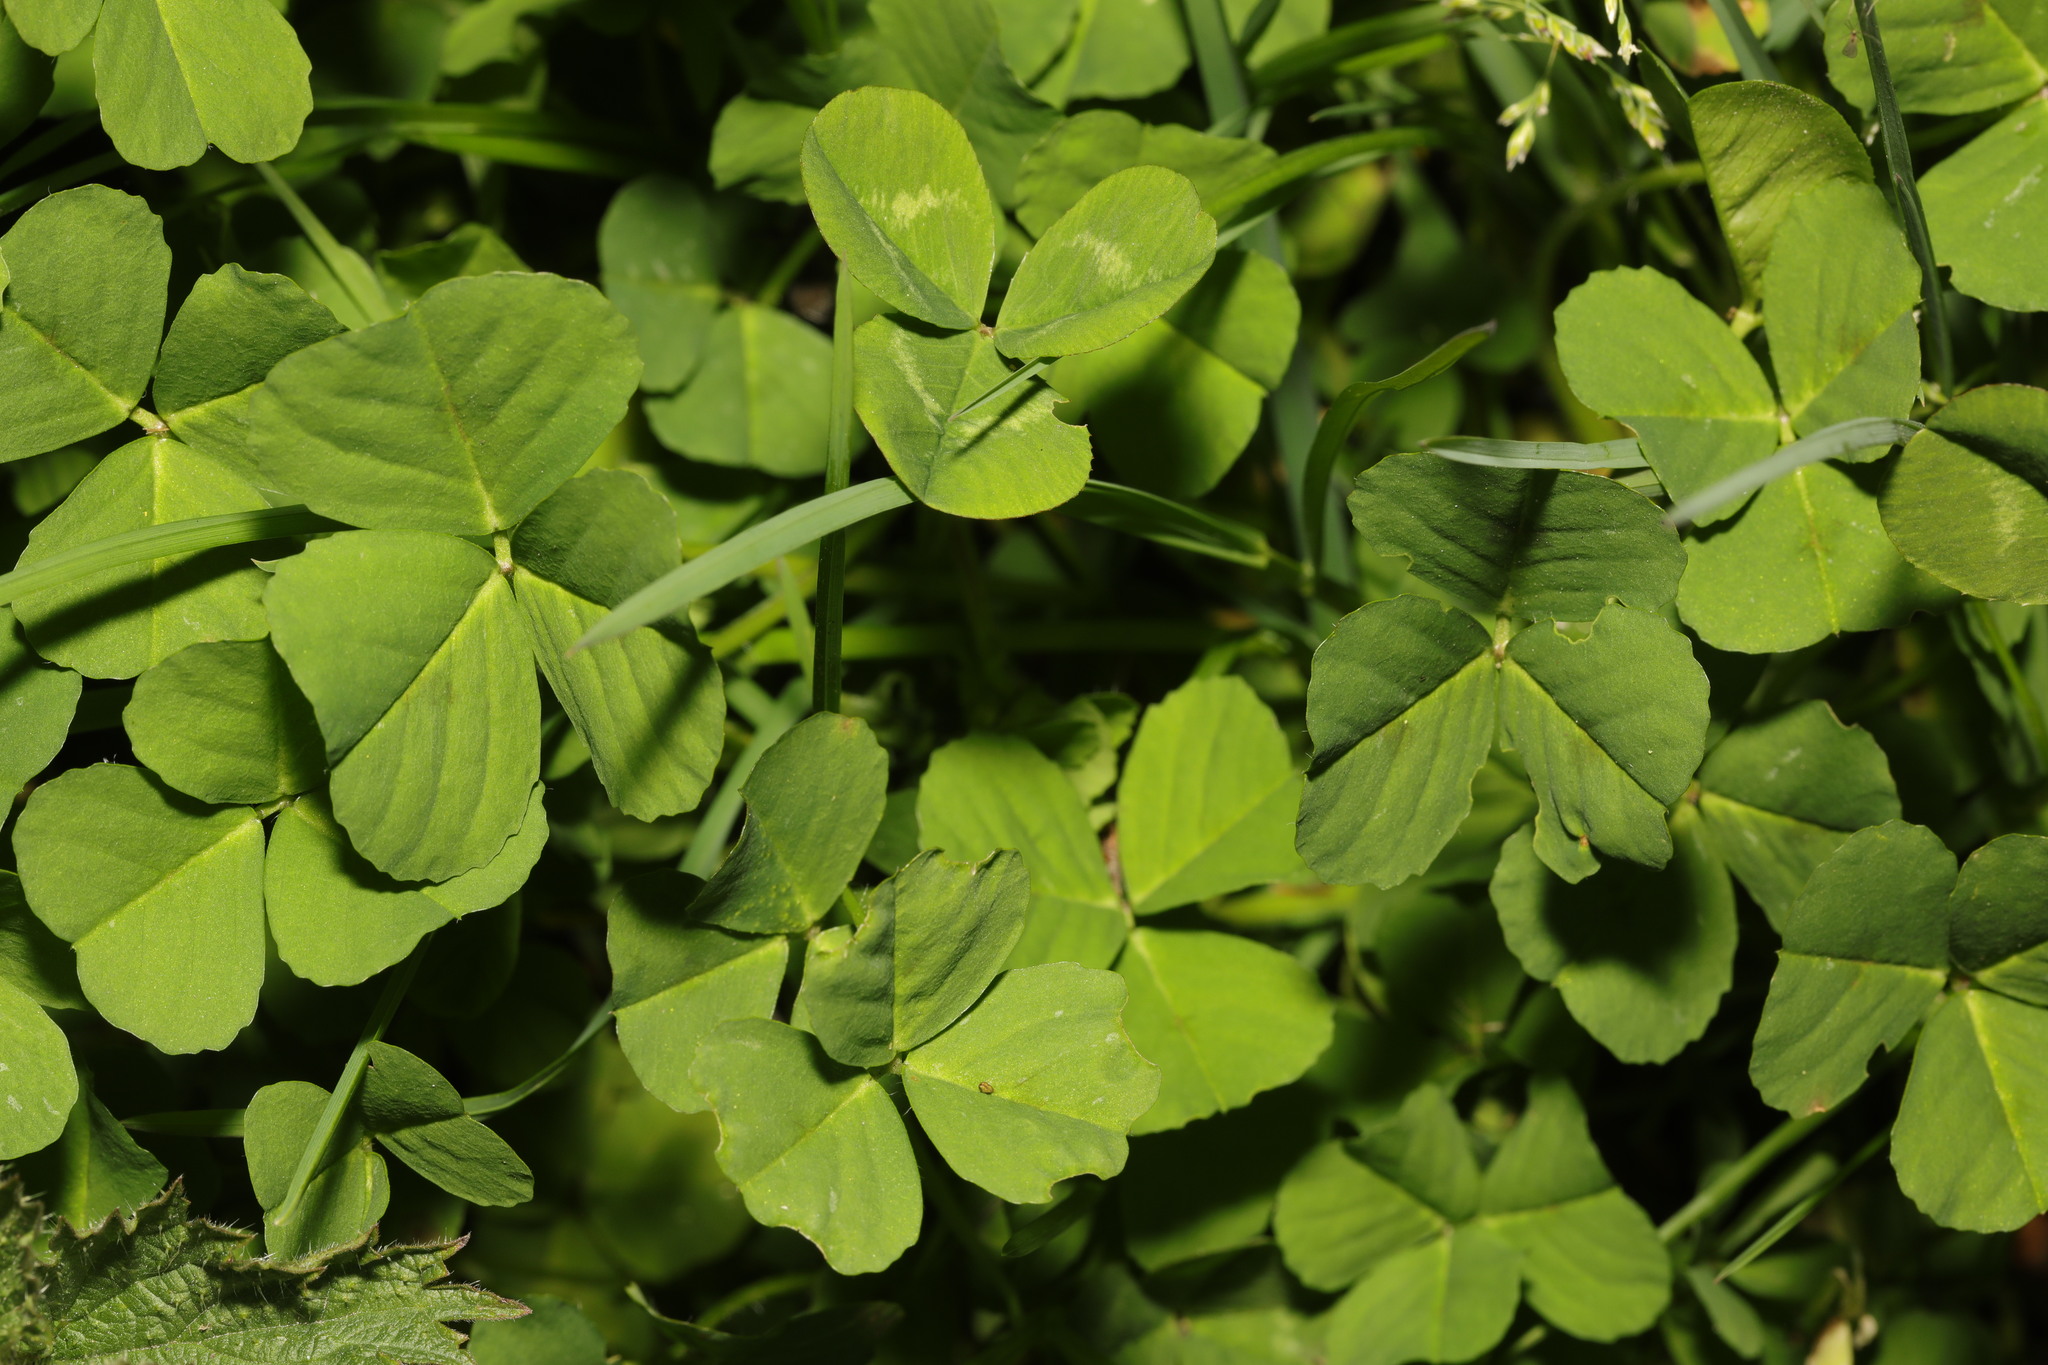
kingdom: Plantae
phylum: Tracheophyta
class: Magnoliopsida
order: Fabales
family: Fabaceae
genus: Trifolium
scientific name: Trifolium repens
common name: White clover
